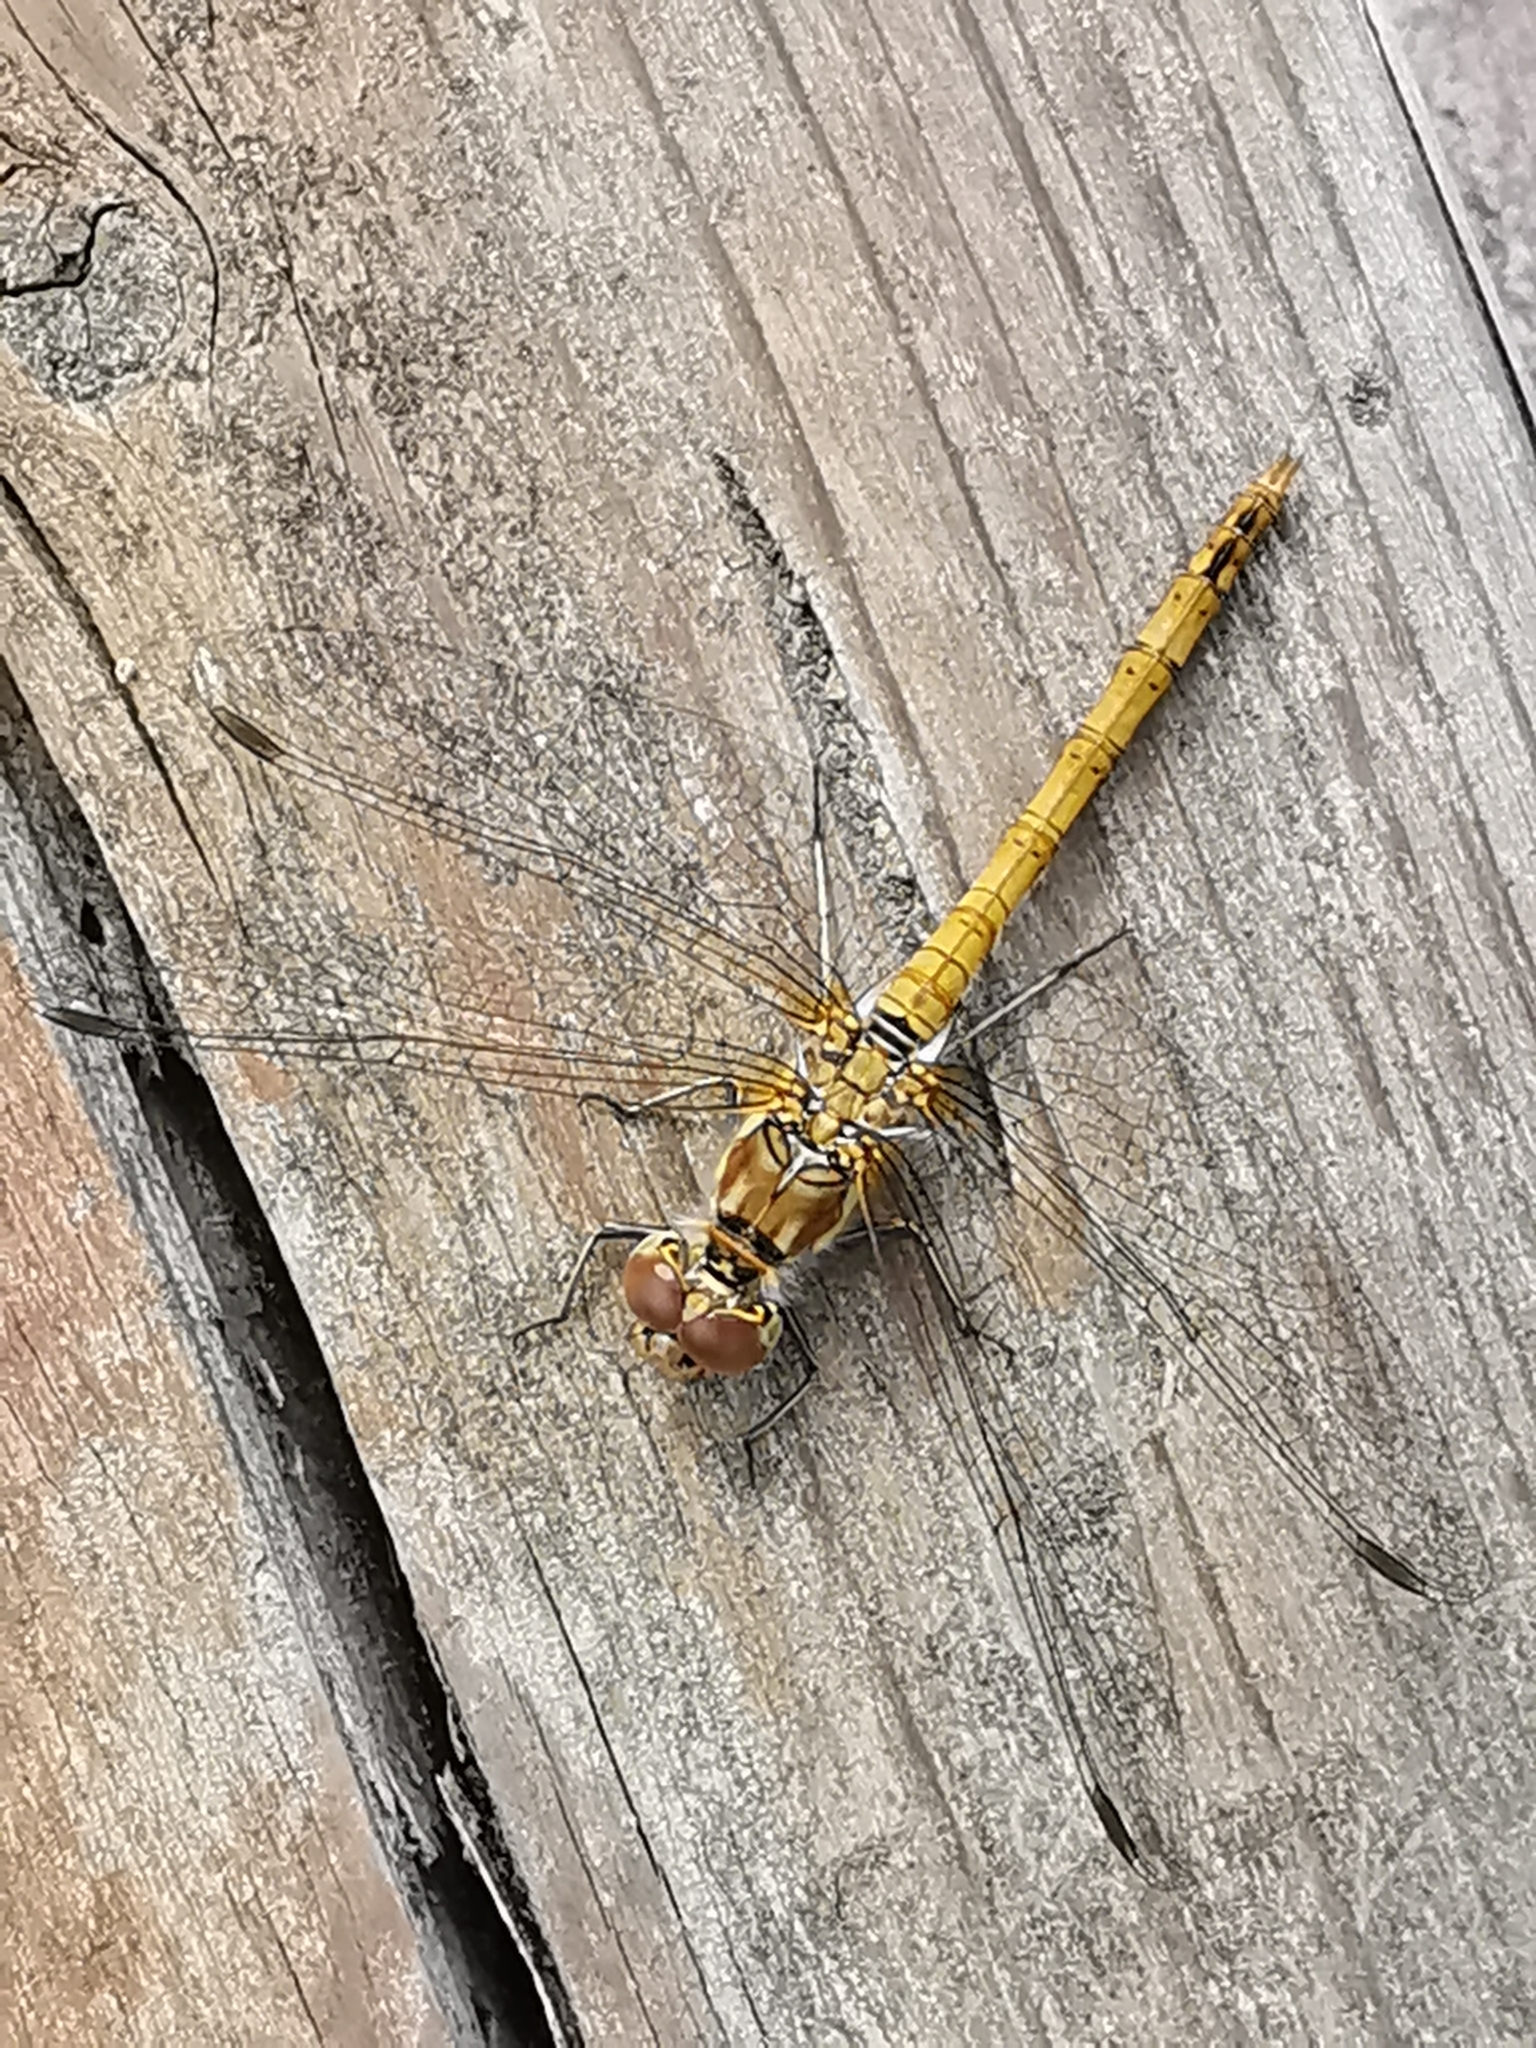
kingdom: Animalia
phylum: Arthropoda
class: Insecta
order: Odonata
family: Libellulidae
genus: Sympetrum
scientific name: Sympetrum striolatum
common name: Common darter
